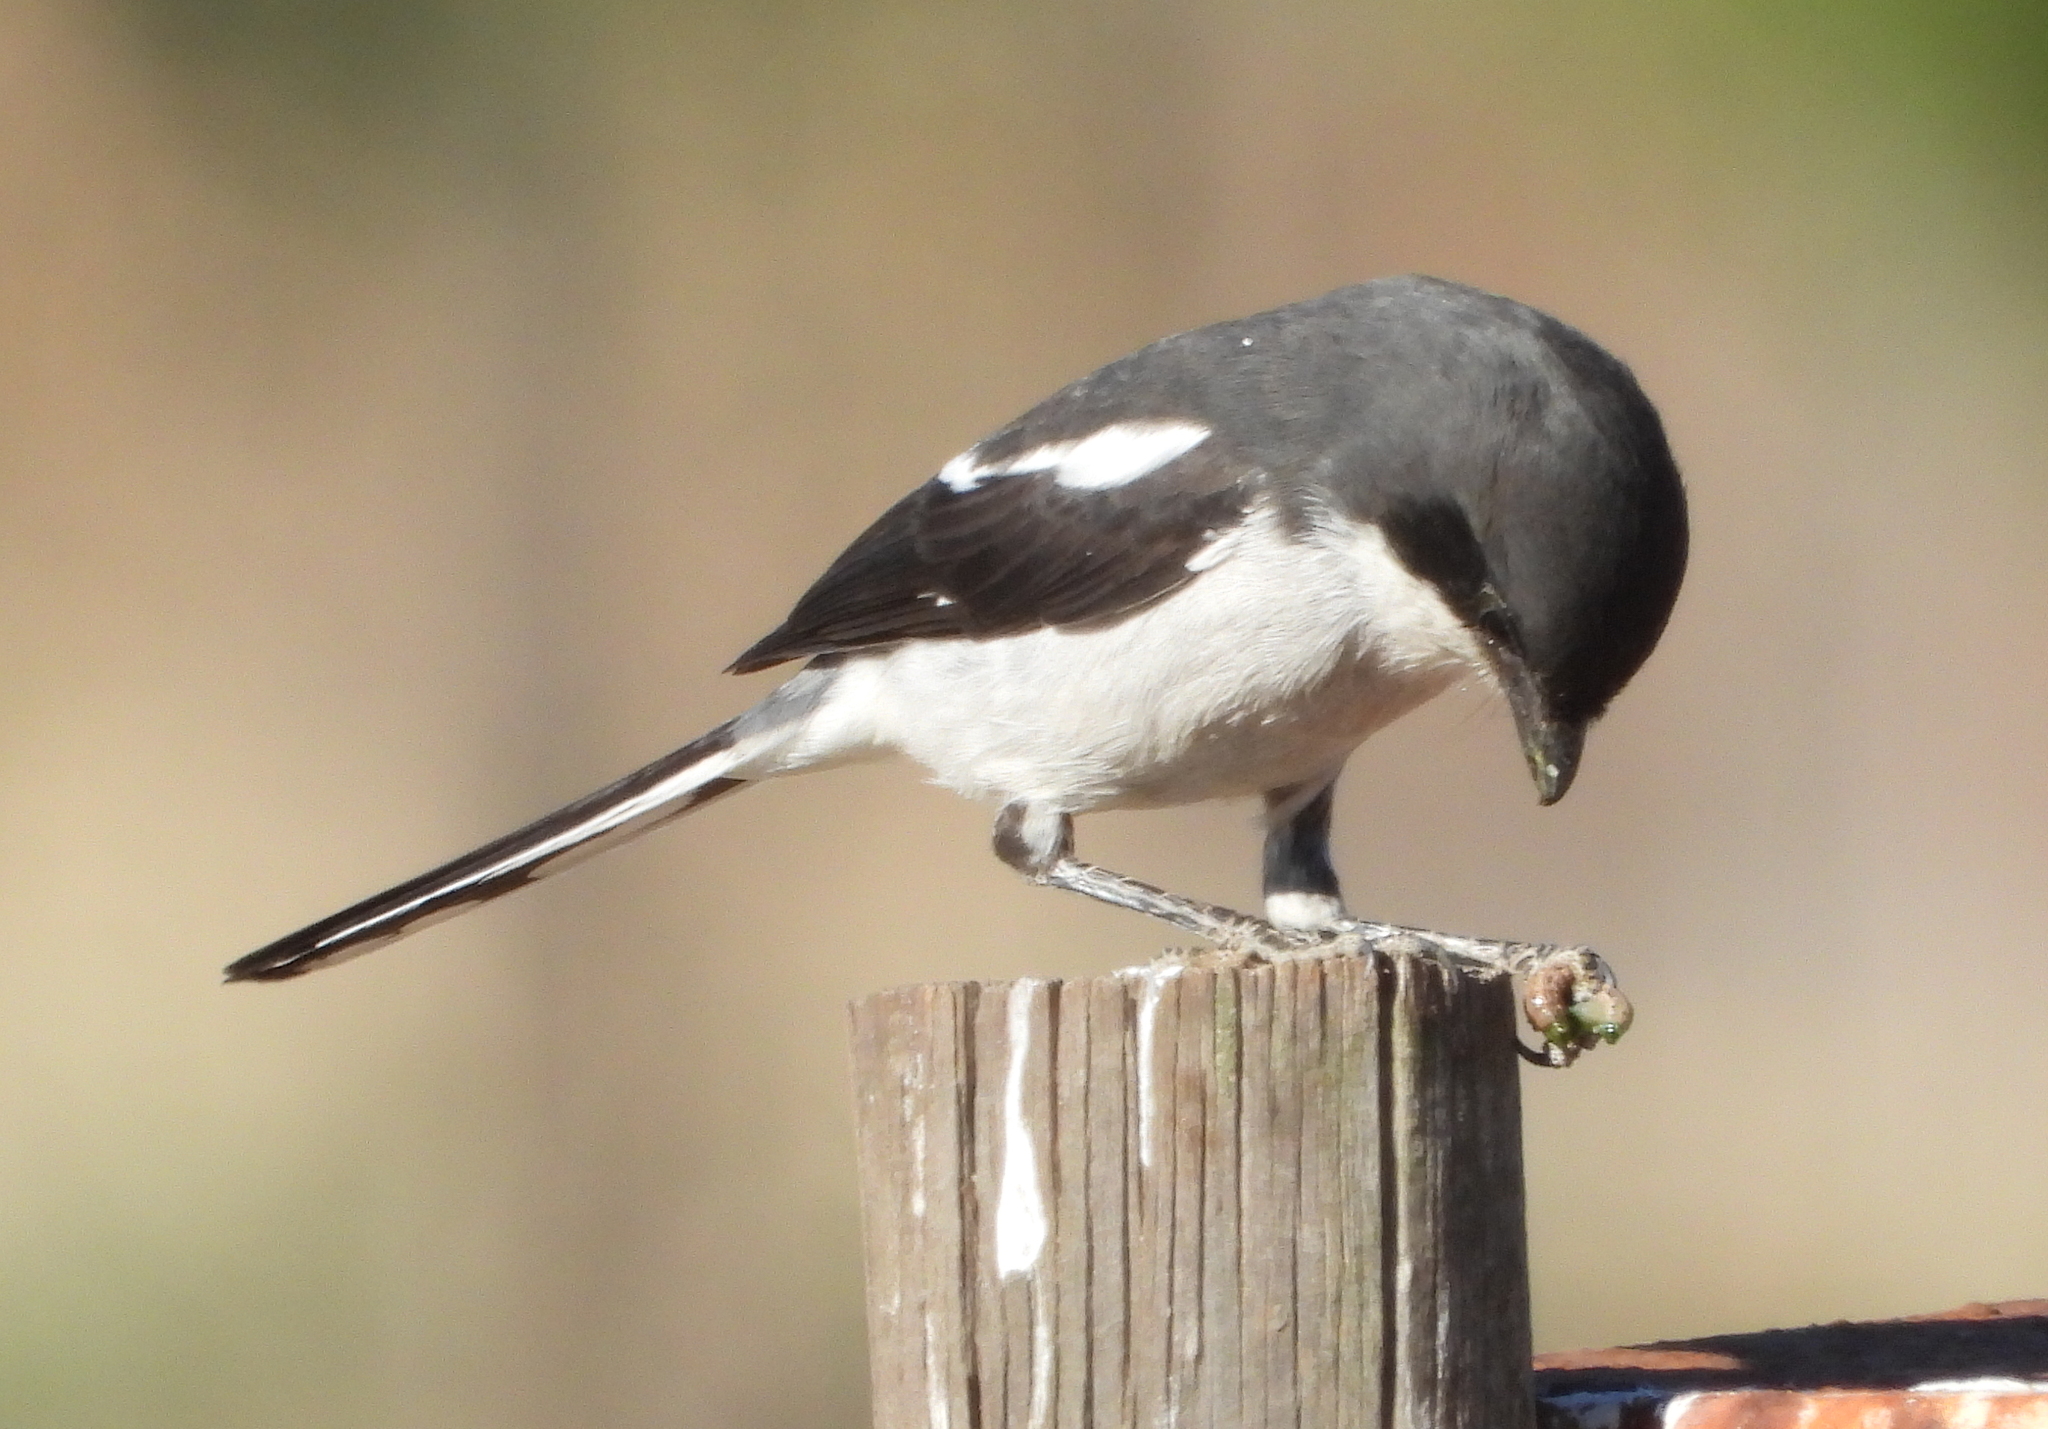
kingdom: Animalia
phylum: Chordata
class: Aves
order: Passeriformes
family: Laniidae
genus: Lanius
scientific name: Lanius collaris
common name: Southern fiscal
